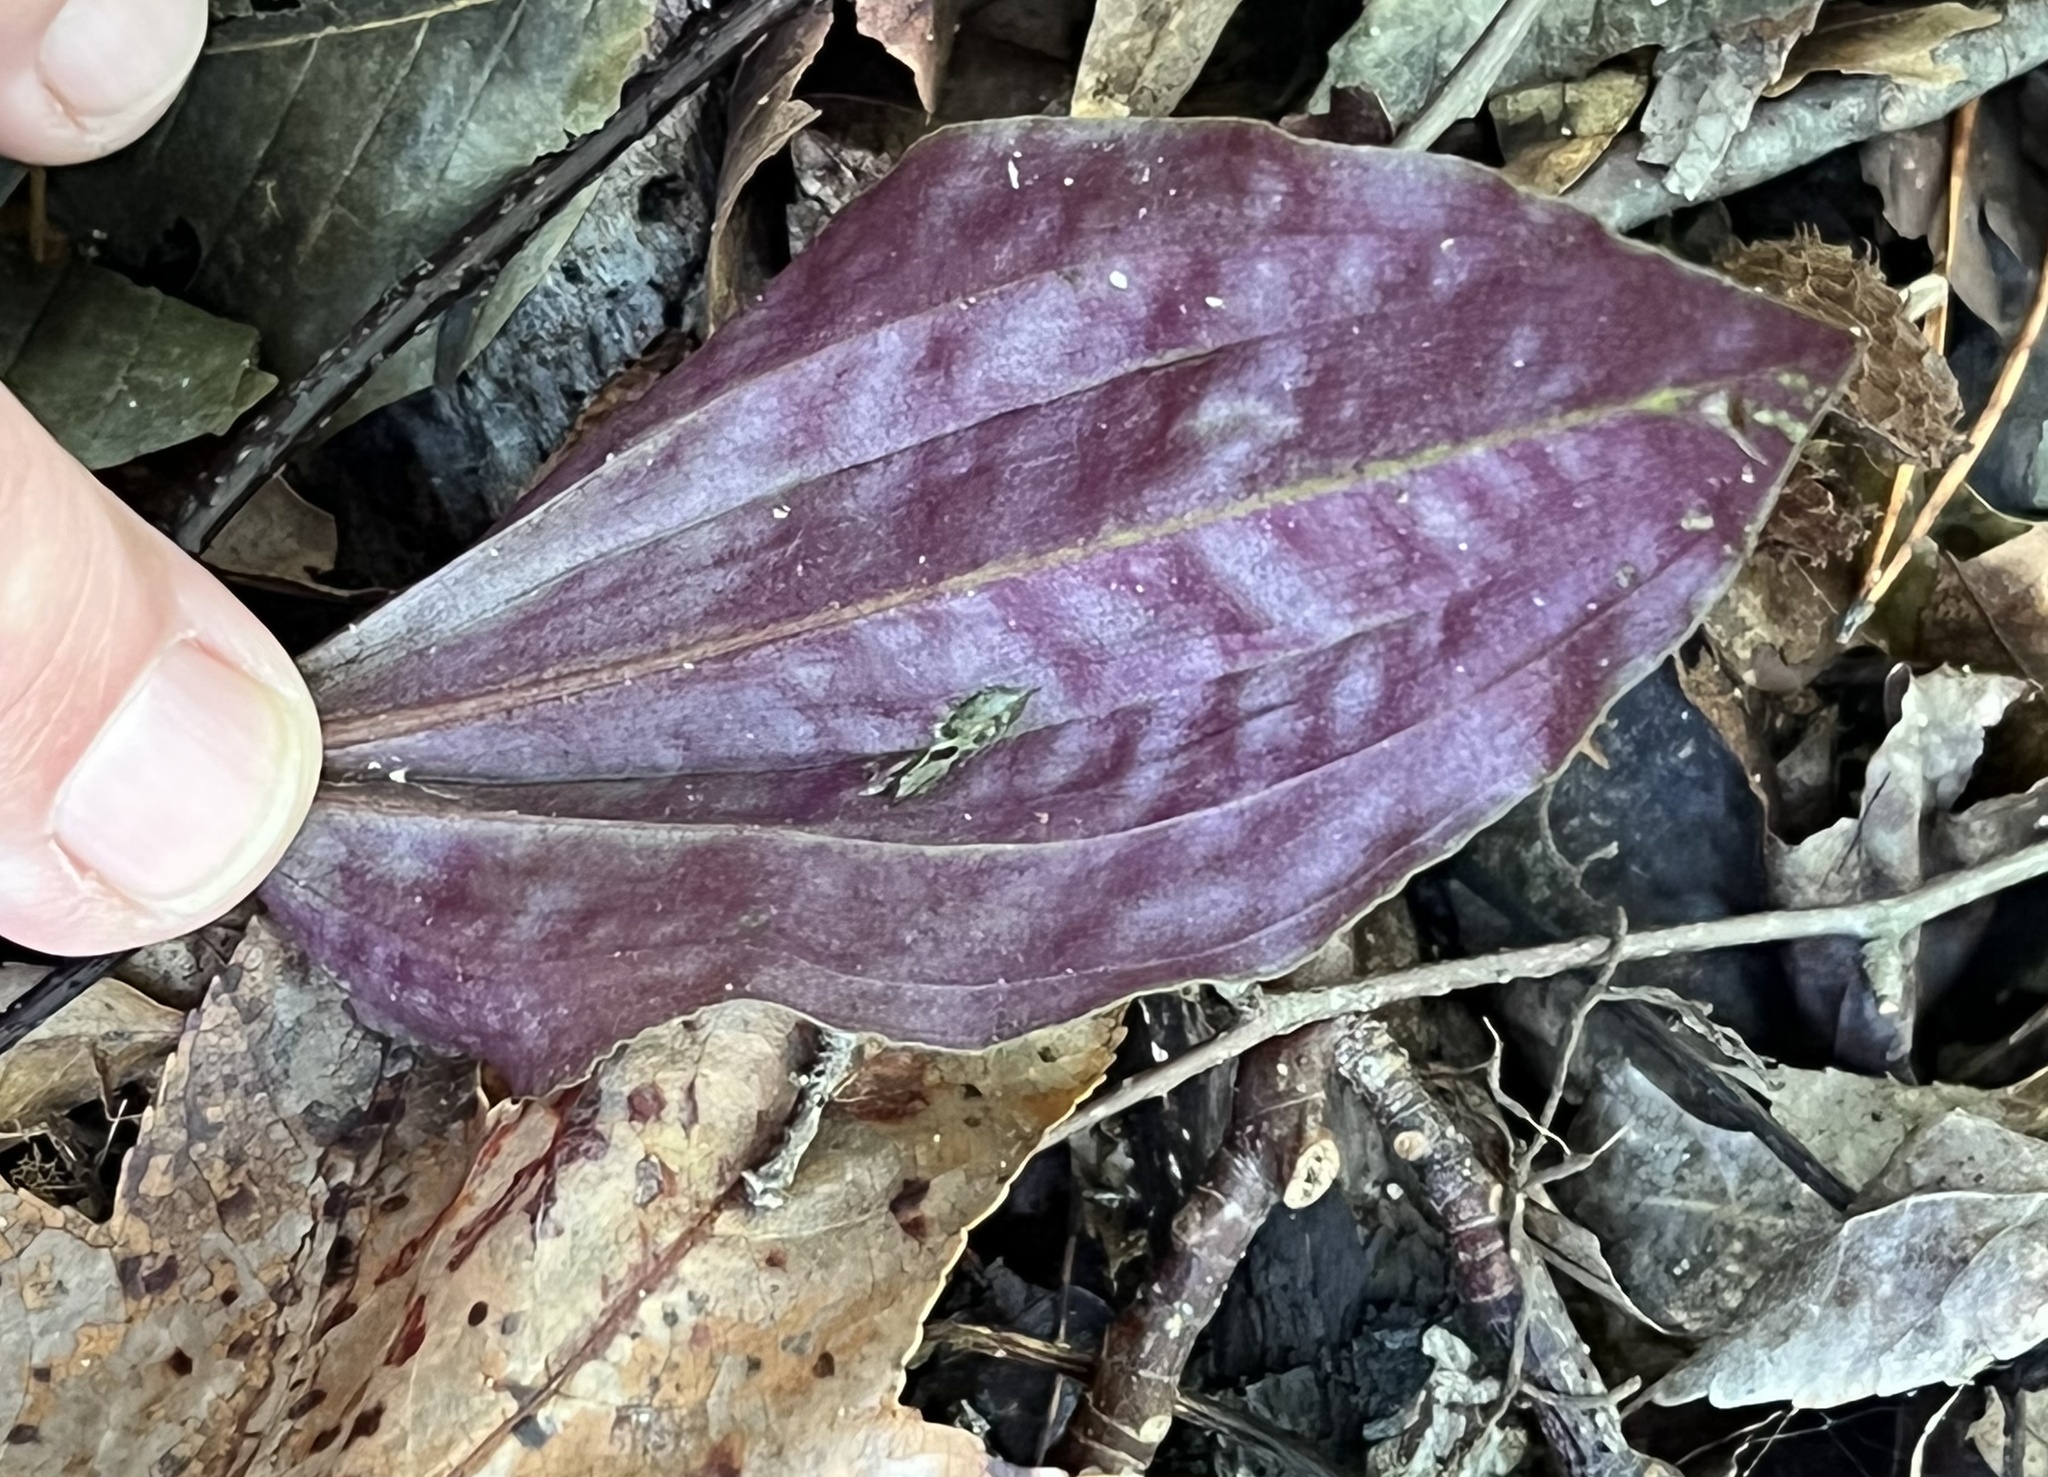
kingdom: Plantae
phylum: Tracheophyta
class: Liliopsida
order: Asparagales
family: Orchidaceae
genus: Tipularia
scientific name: Tipularia discolor
